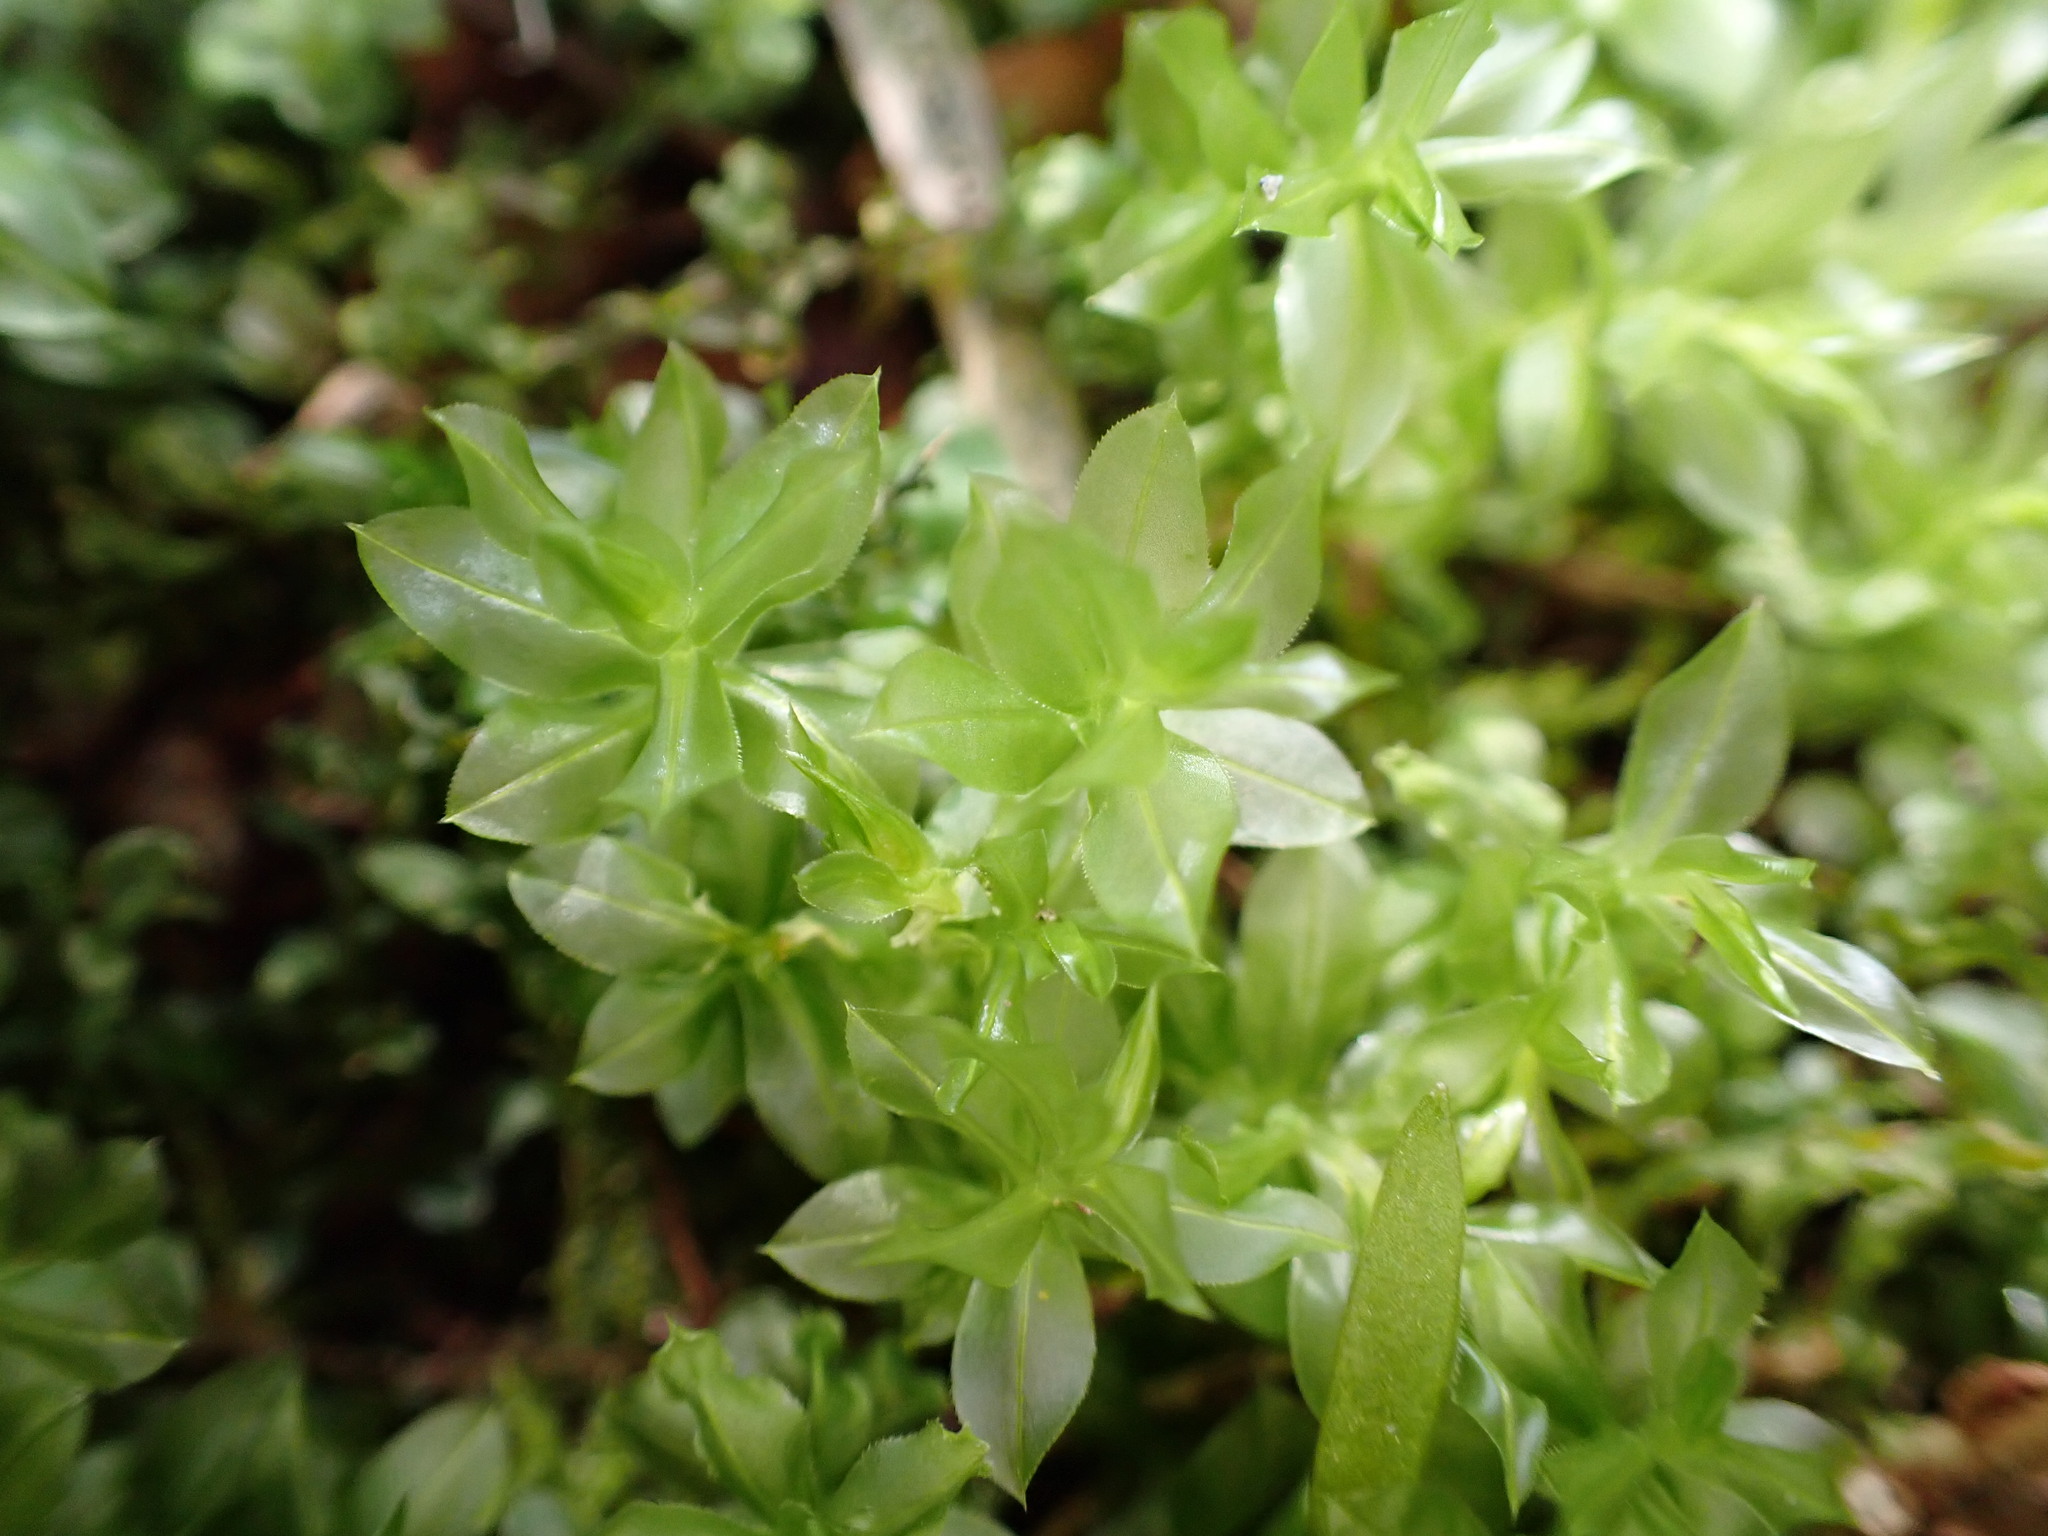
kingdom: Plantae
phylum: Bryophyta
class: Bryopsida
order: Bryales
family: Mniaceae
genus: Plagiomnium
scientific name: Plagiomnium insigne
